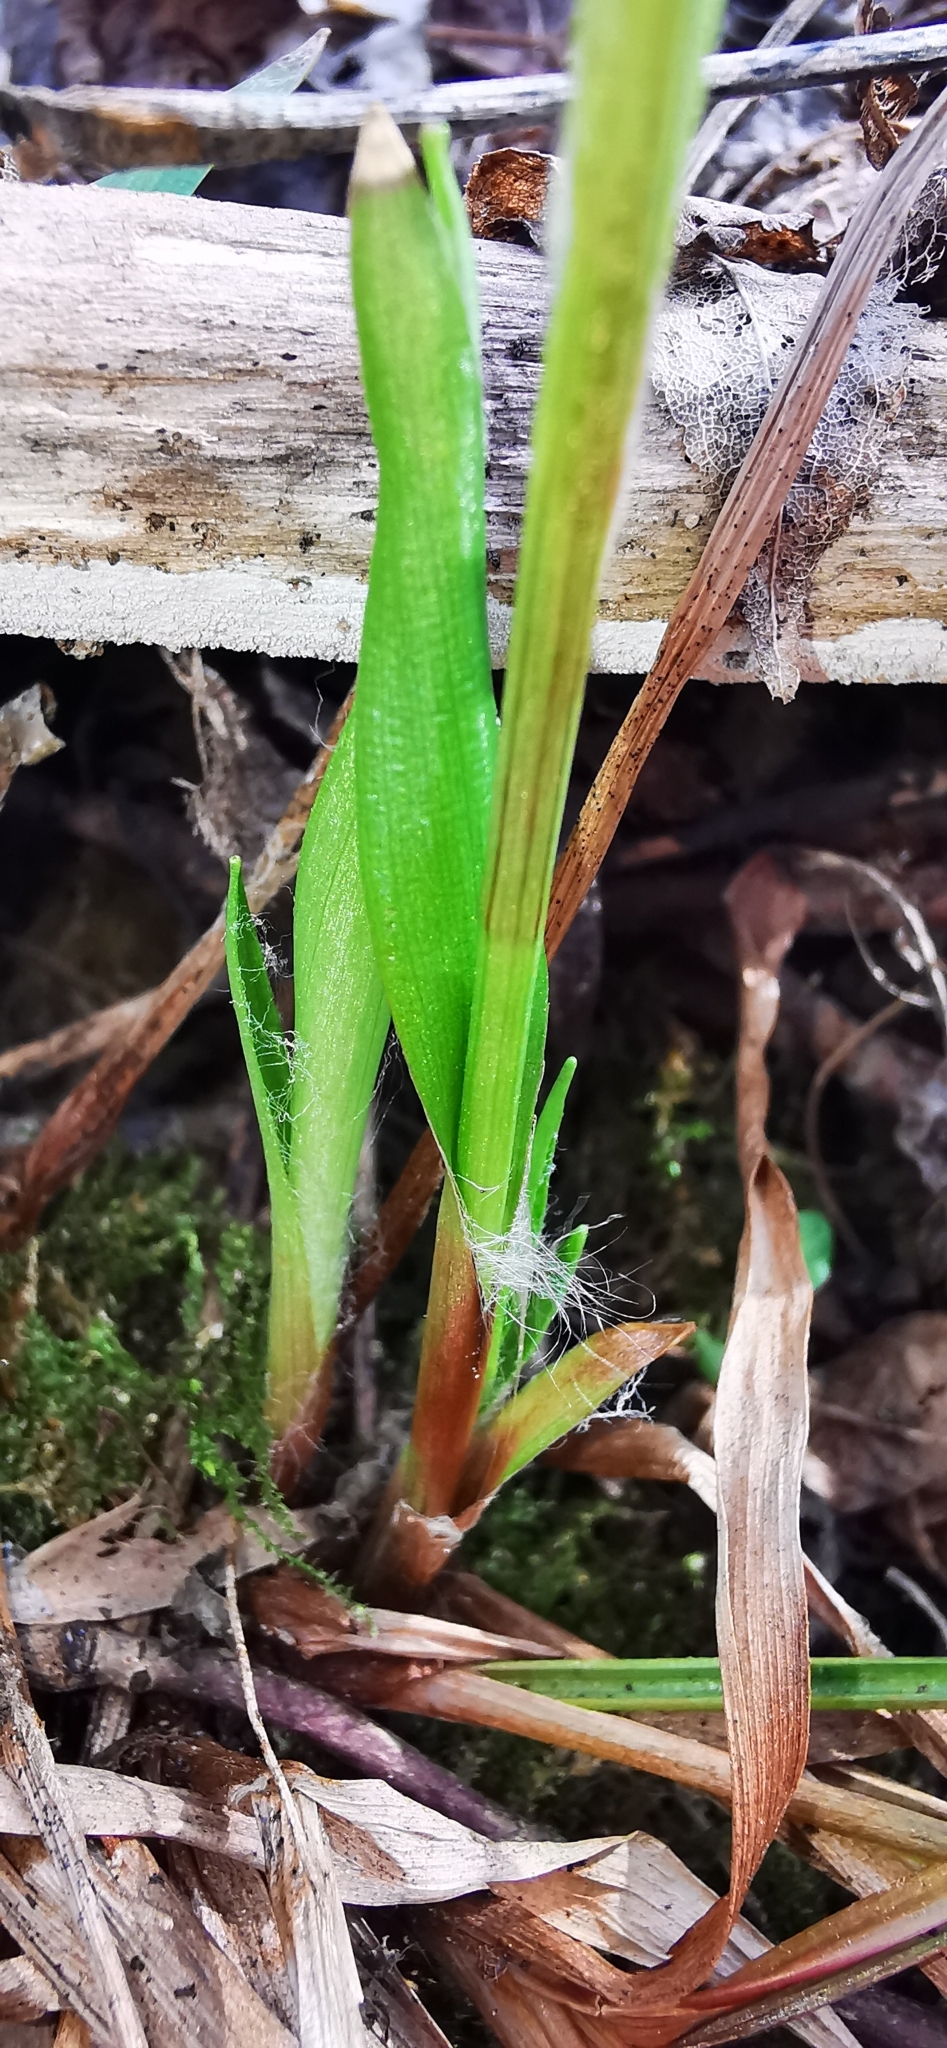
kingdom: Plantae
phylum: Tracheophyta
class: Liliopsida
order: Poales
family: Juncaceae
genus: Luzula
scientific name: Luzula pilosa
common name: Hairy wood-rush
